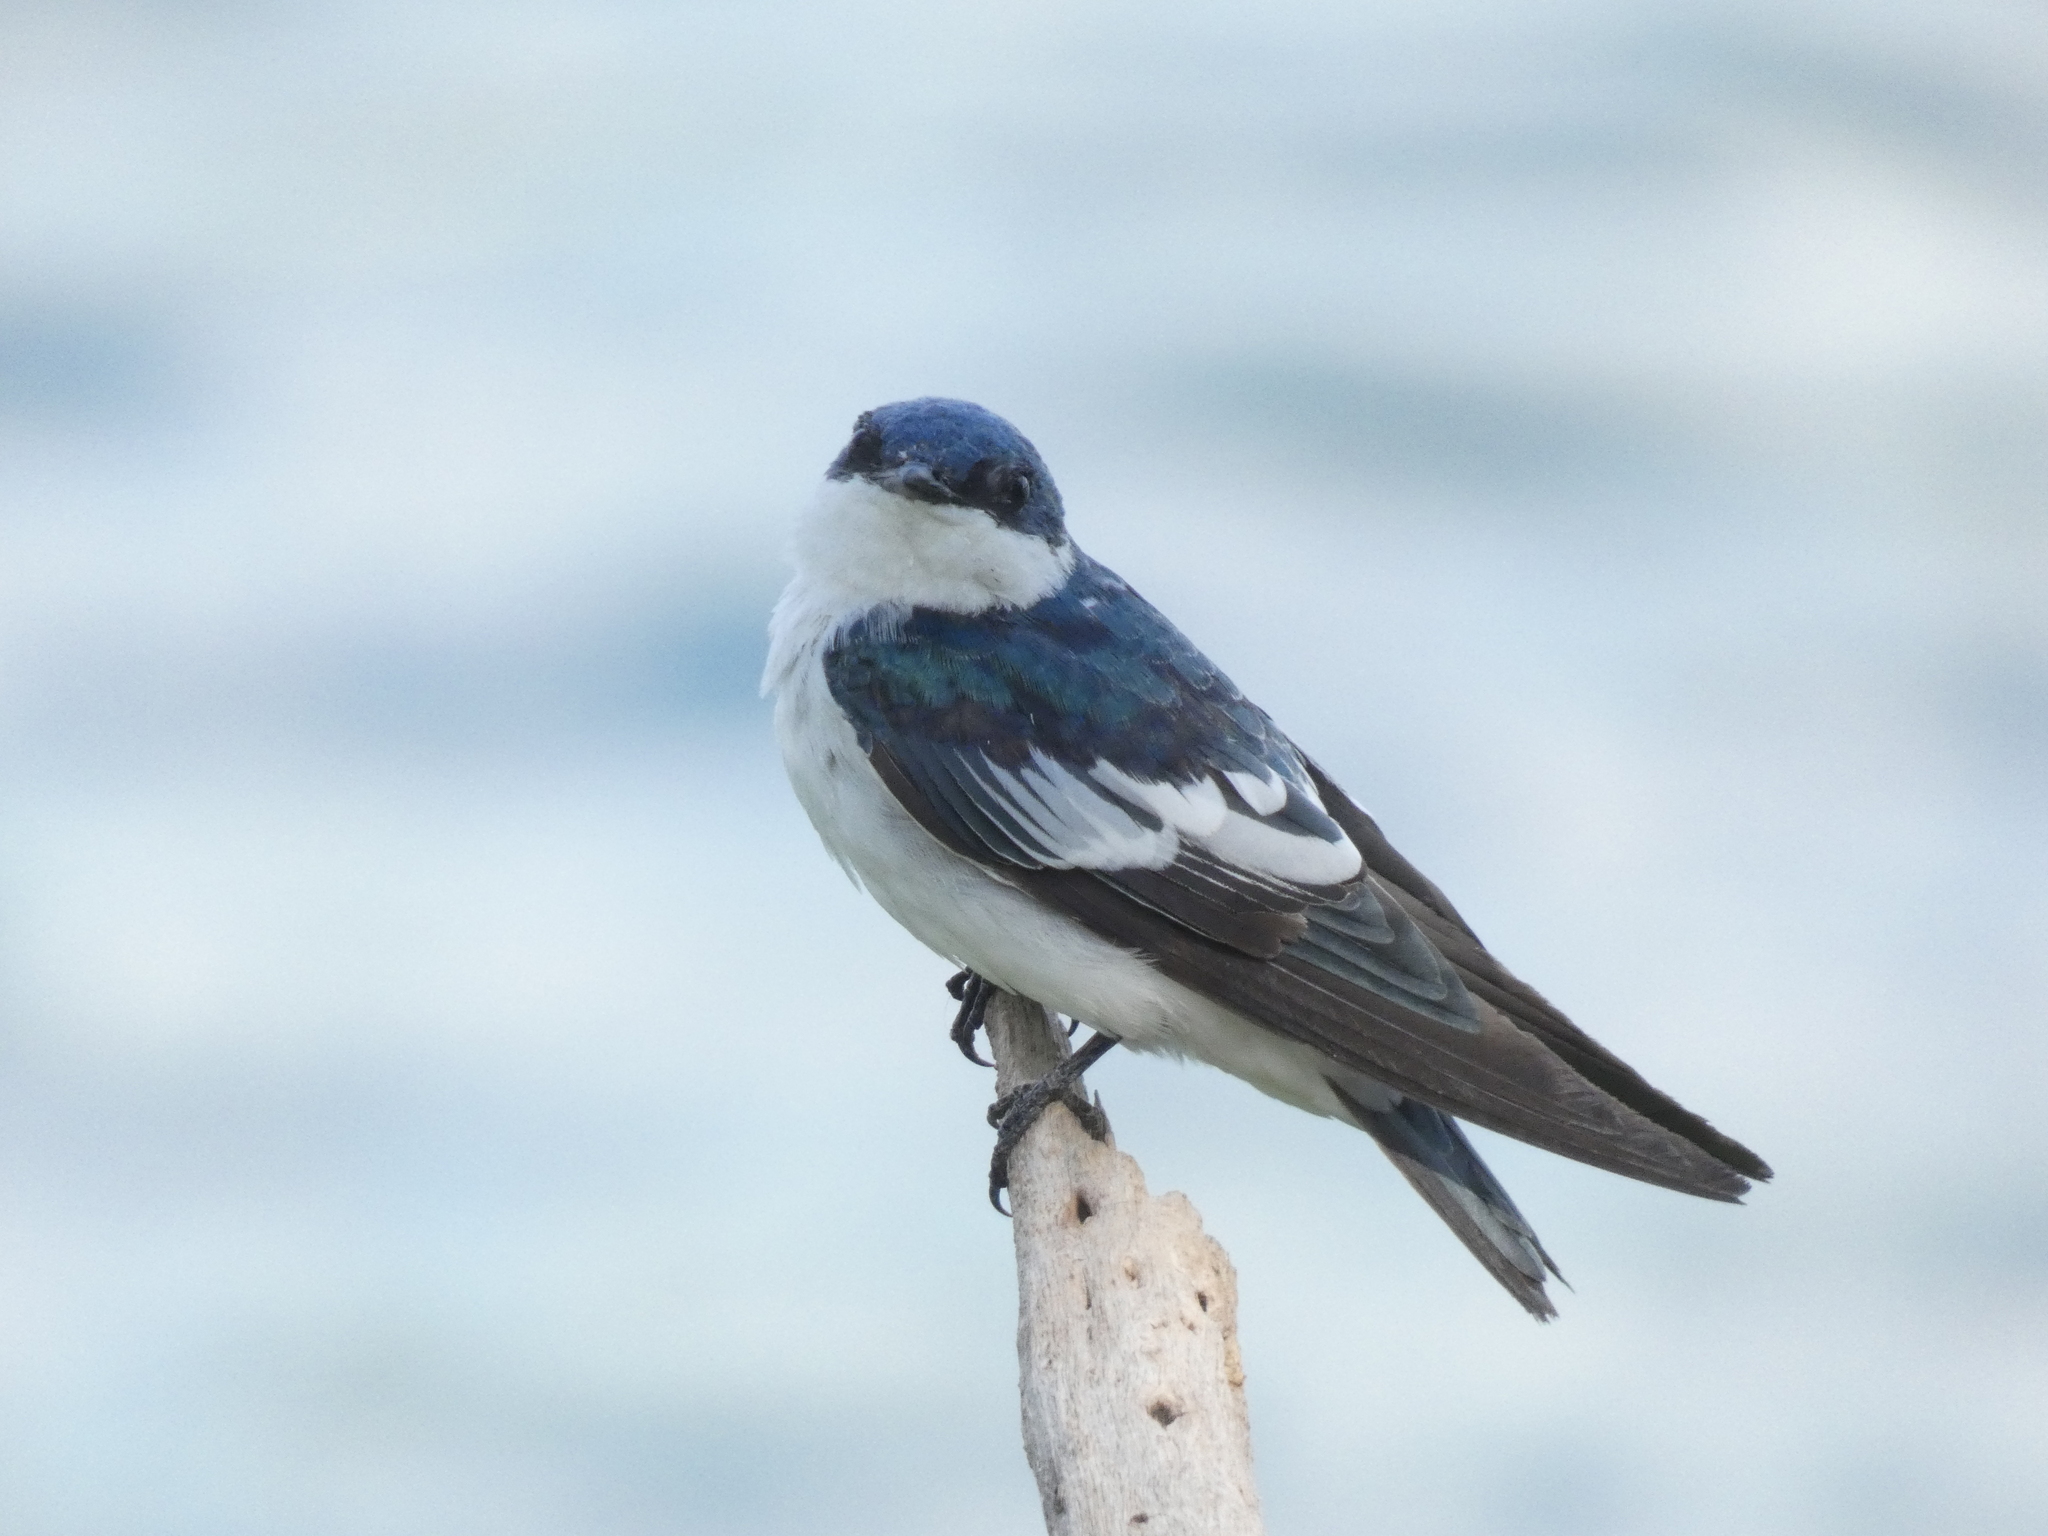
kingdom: Animalia
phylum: Chordata
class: Aves
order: Passeriformes
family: Hirundinidae
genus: Tachycineta
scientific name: Tachycineta albiventer
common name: White-winged swallow
